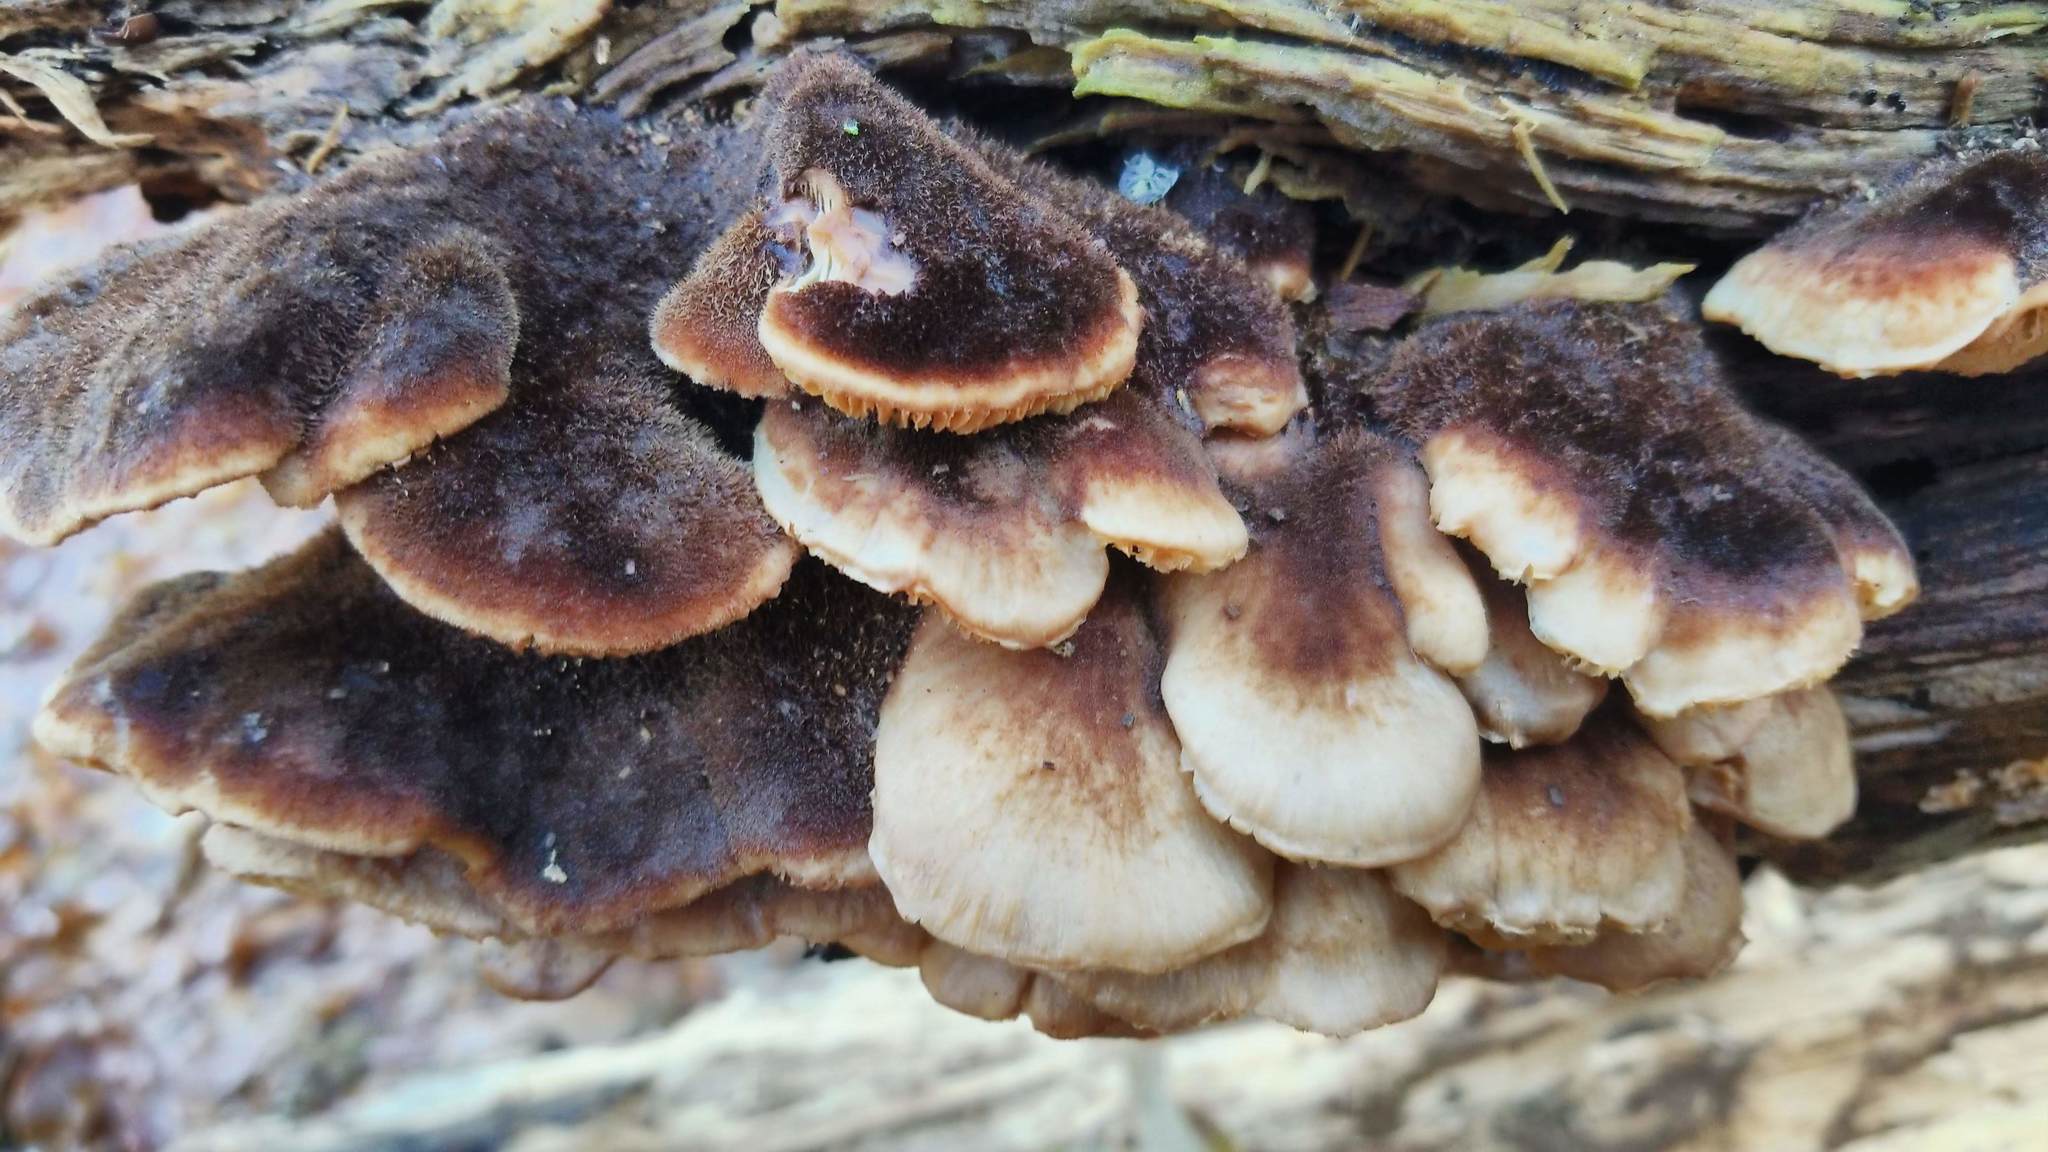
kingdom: Fungi
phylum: Basidiomycota
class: Agaricomycetes
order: Russulales
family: Auriscalpiaceae
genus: Lentinellus
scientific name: Lentinellus ursinus
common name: Bear lentinus
